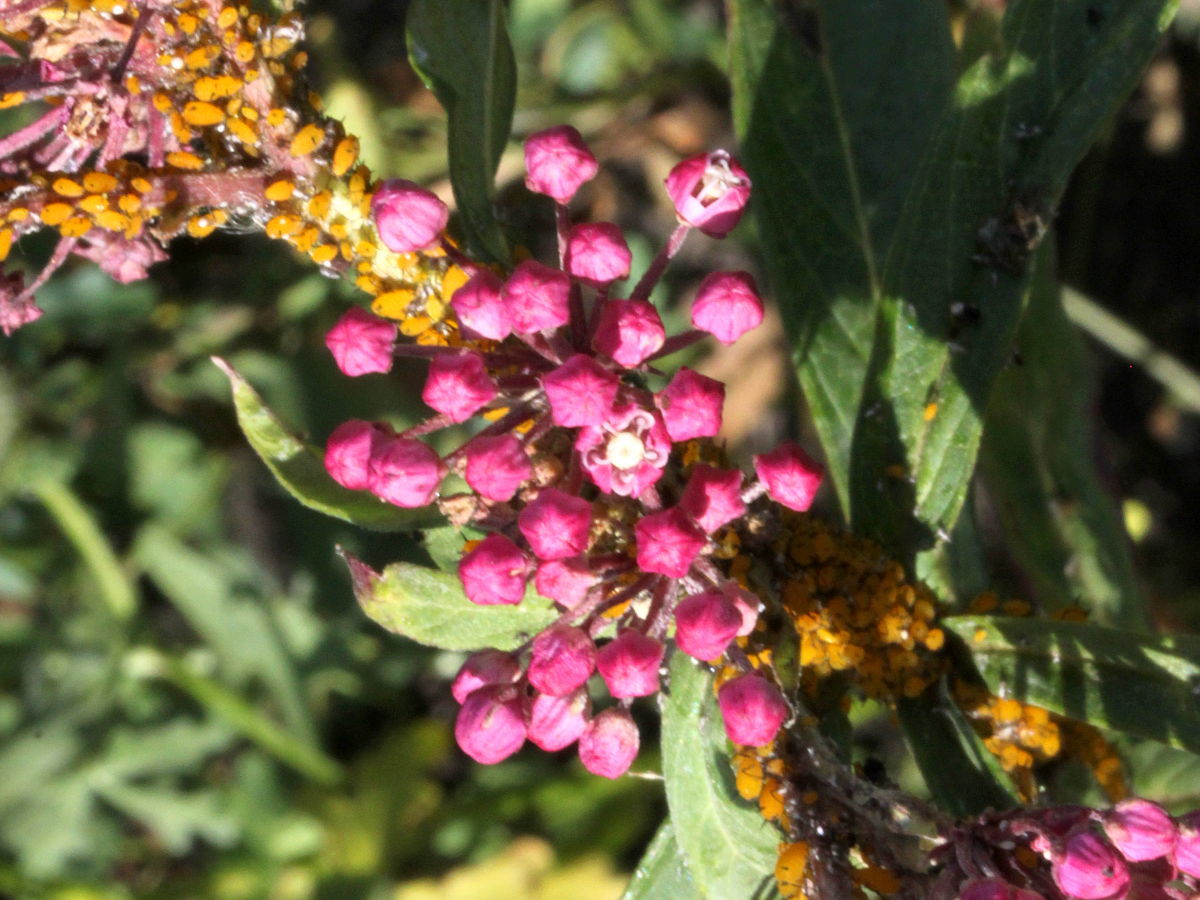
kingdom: Plantae
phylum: Tracheophyta
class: Magnoliopsida
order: Gentianales
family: Apocynaceae
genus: Asclepias
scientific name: Asclepias incarnata
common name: Swamp milkweed
